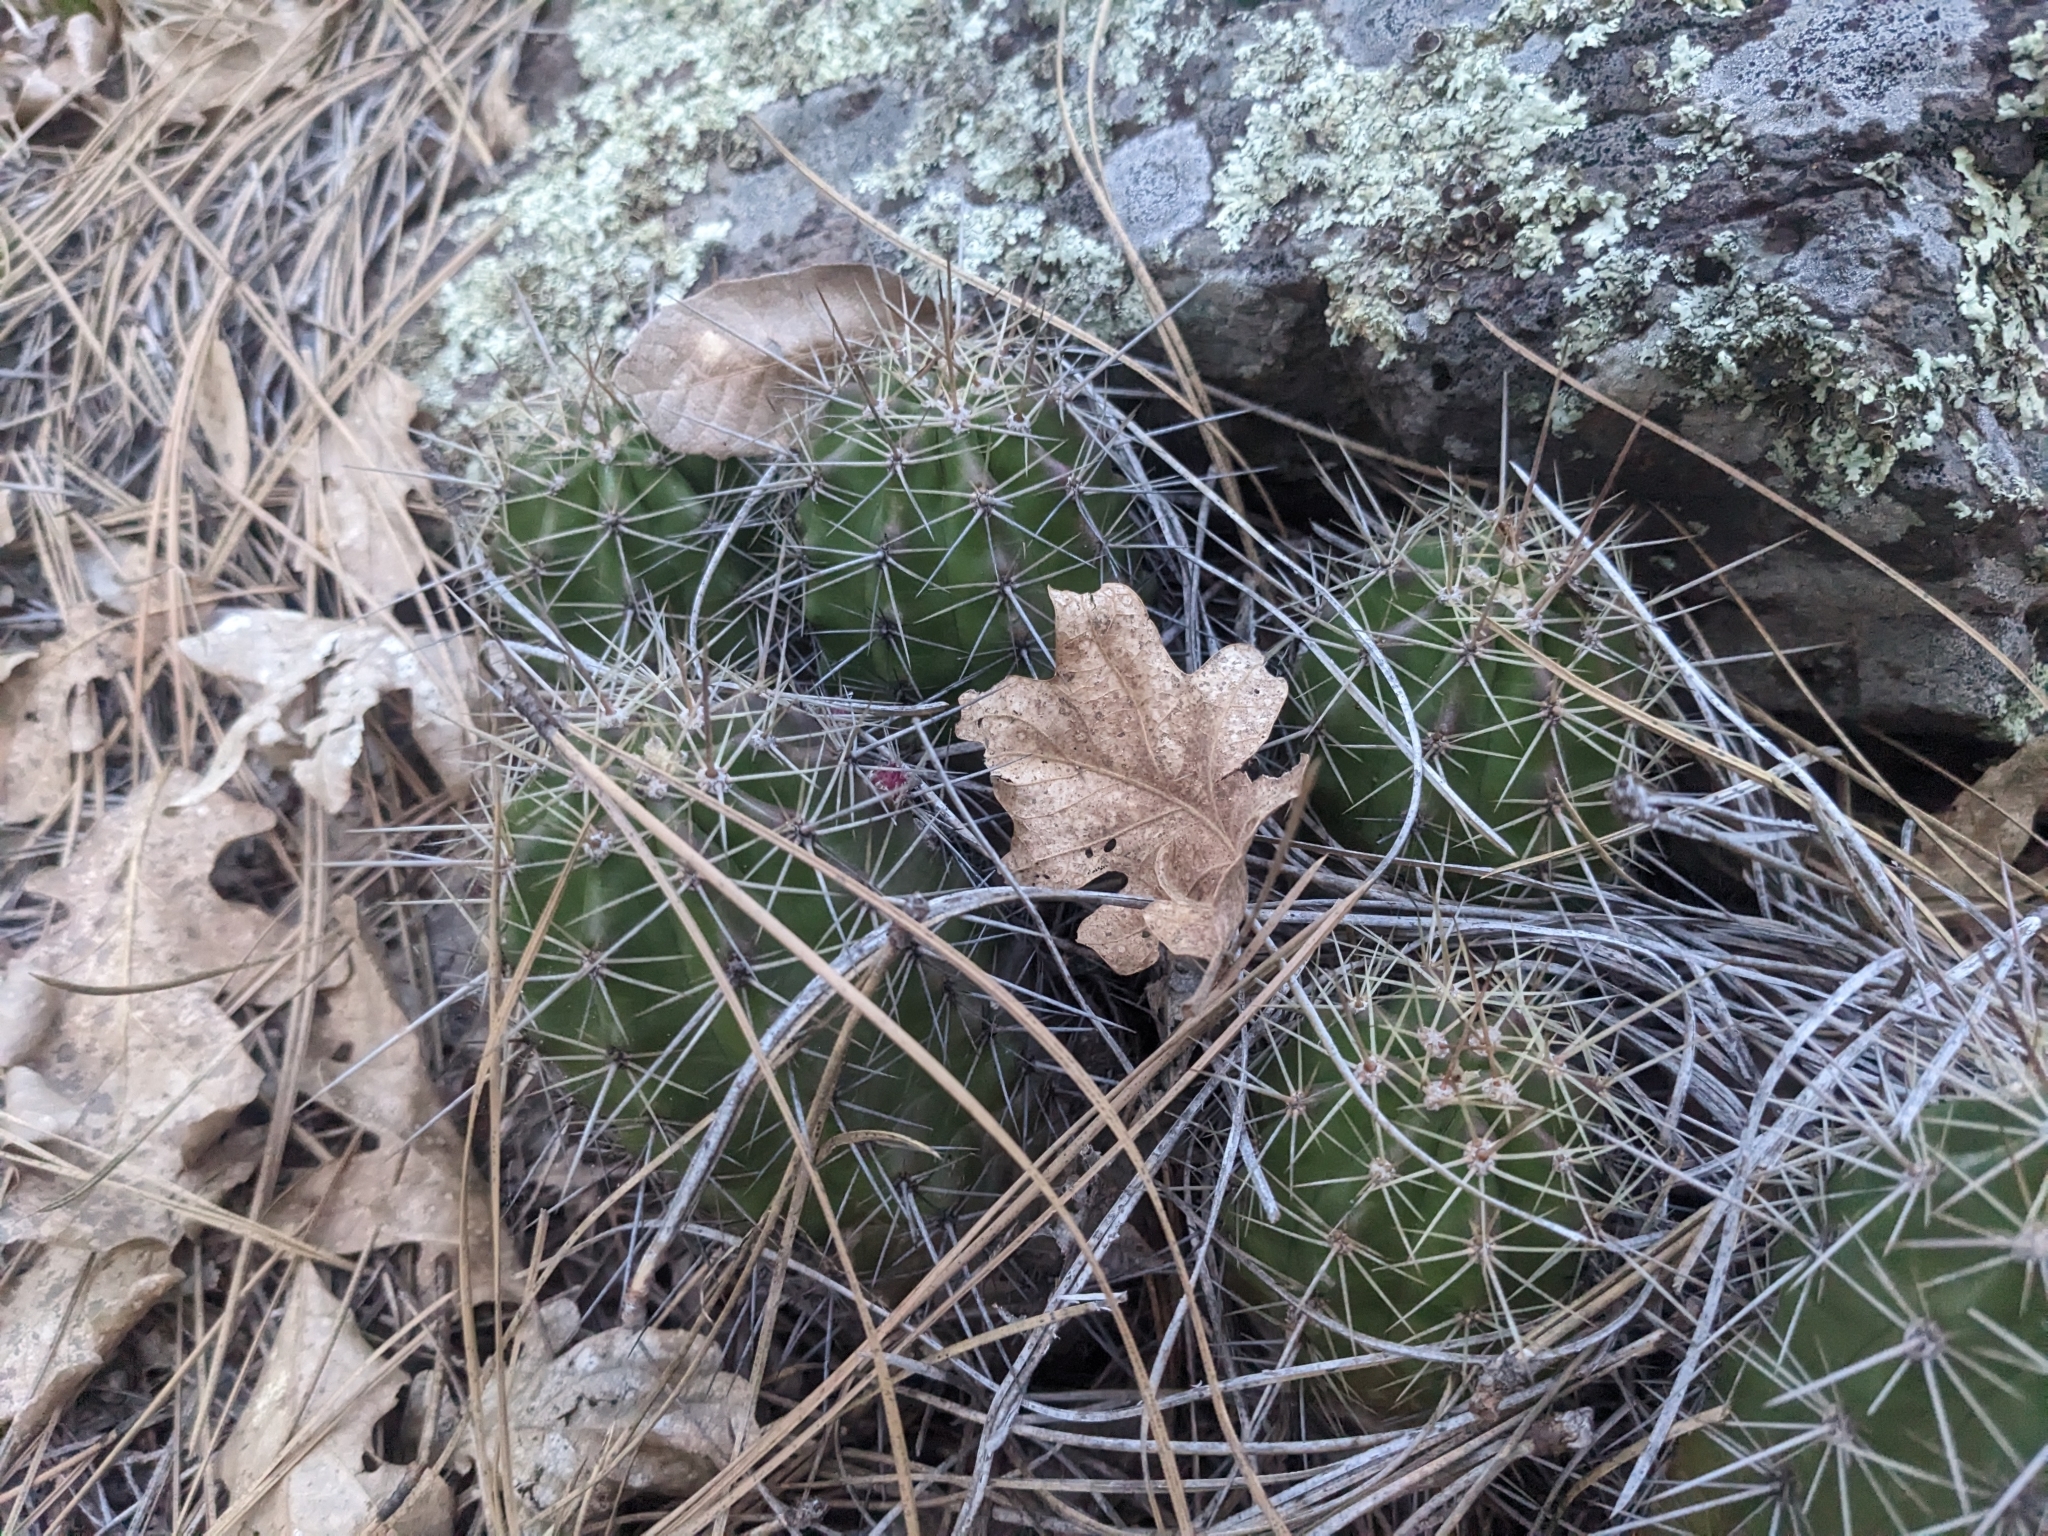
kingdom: Plantae
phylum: Tracheophyta
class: Magnoliopsida
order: Caryophyllales
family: Cactaceae
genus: Echinocereus
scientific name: Echinocereus bakeri
